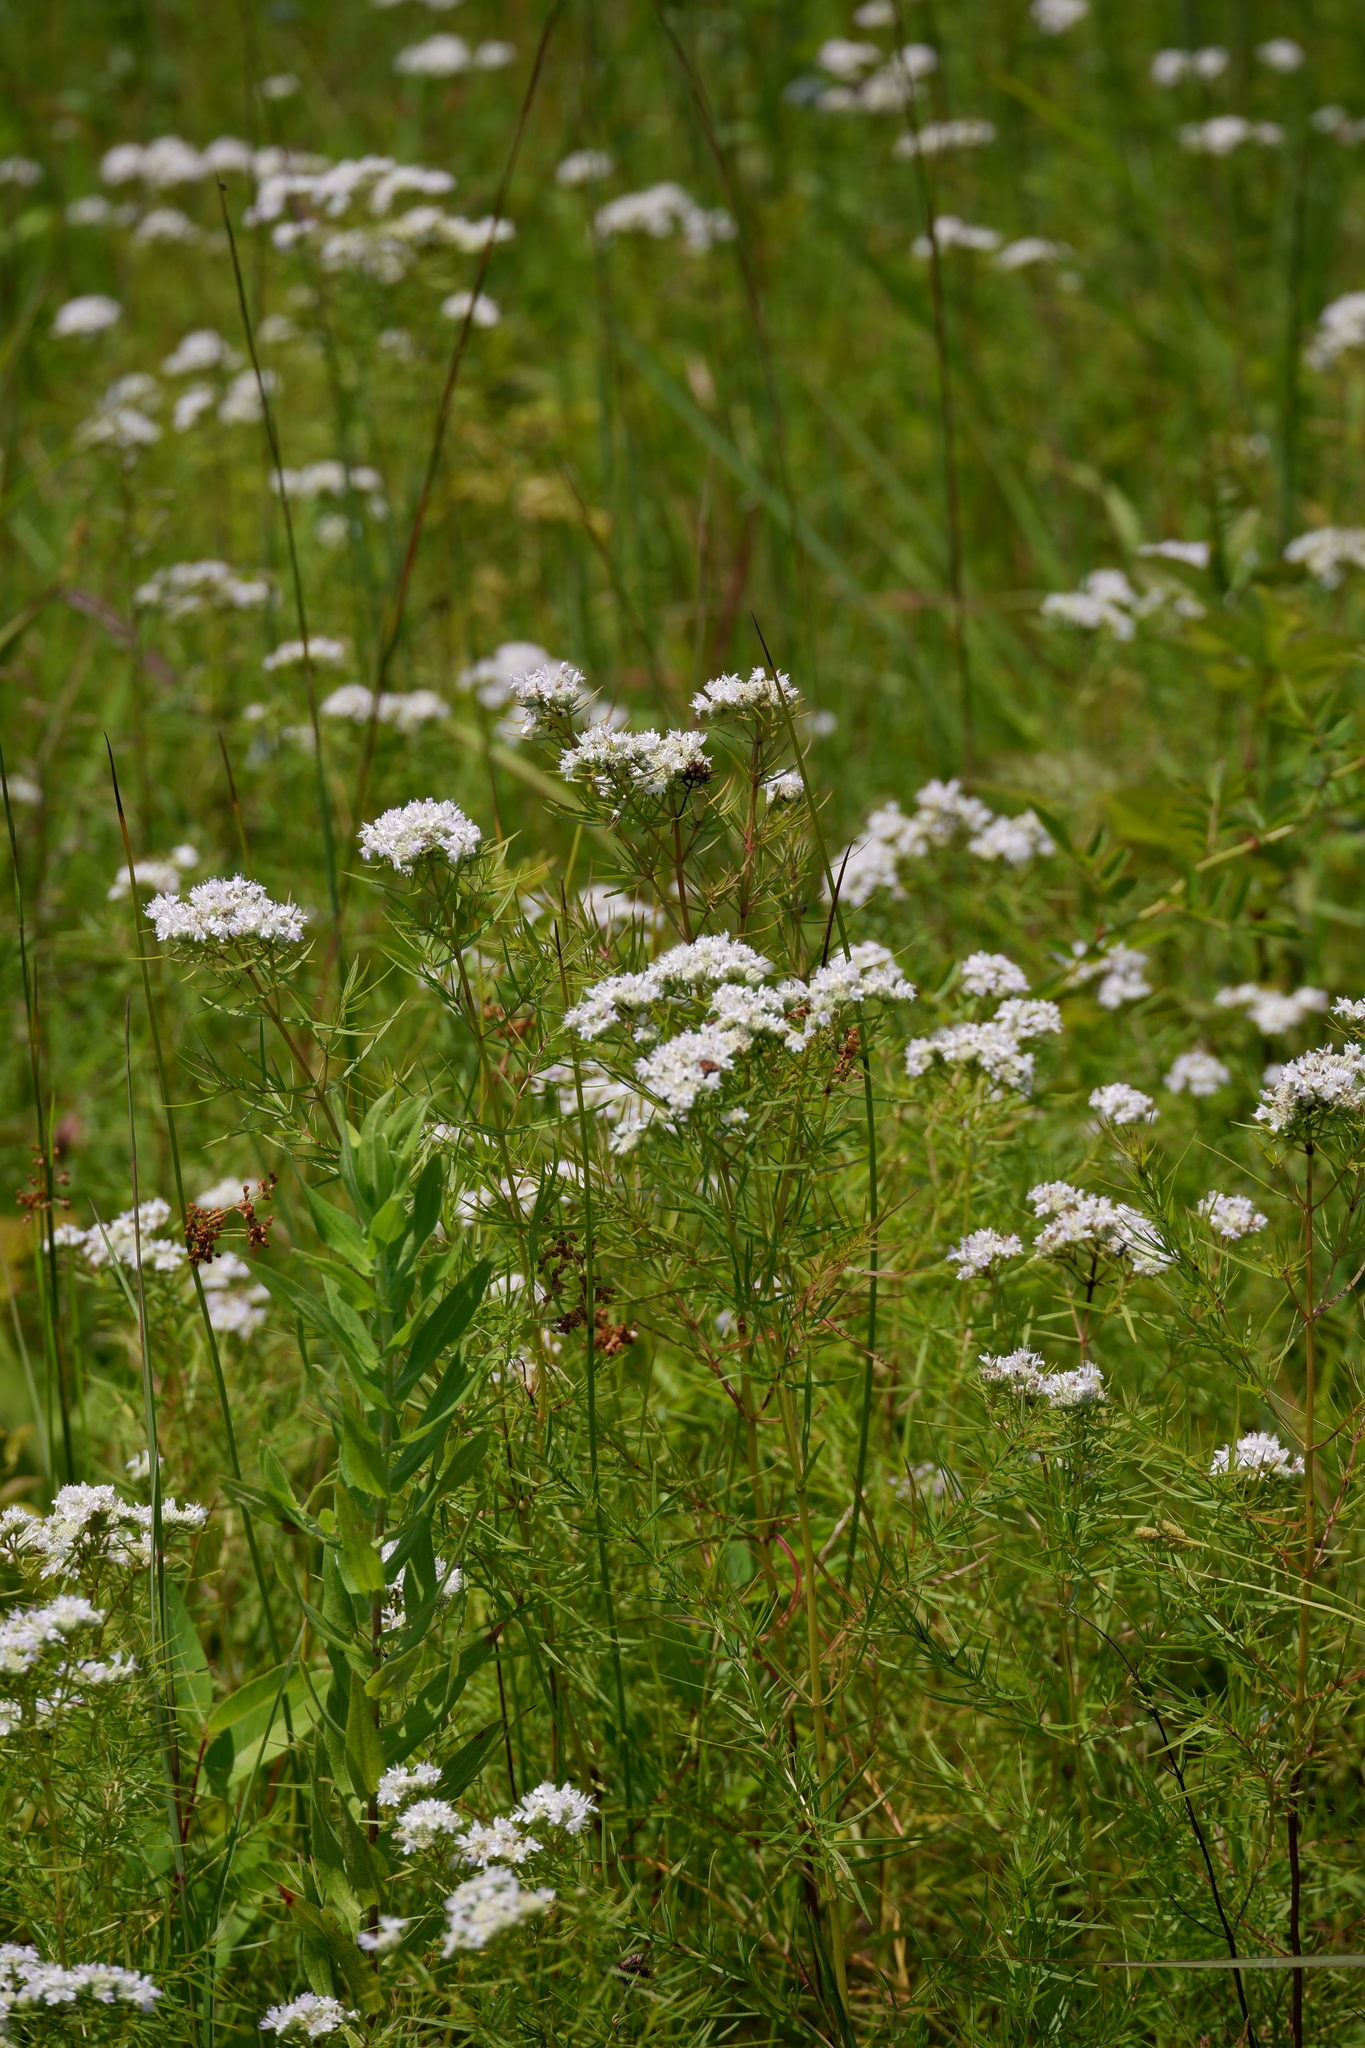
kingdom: Plantae
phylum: Tracheophyta
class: Magnoliopsida
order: Lamiales
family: Lamiaceae
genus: Pycnanthemum
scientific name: Pycnanthemum tenuifolium
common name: Narrow-leaf mountain-mint
